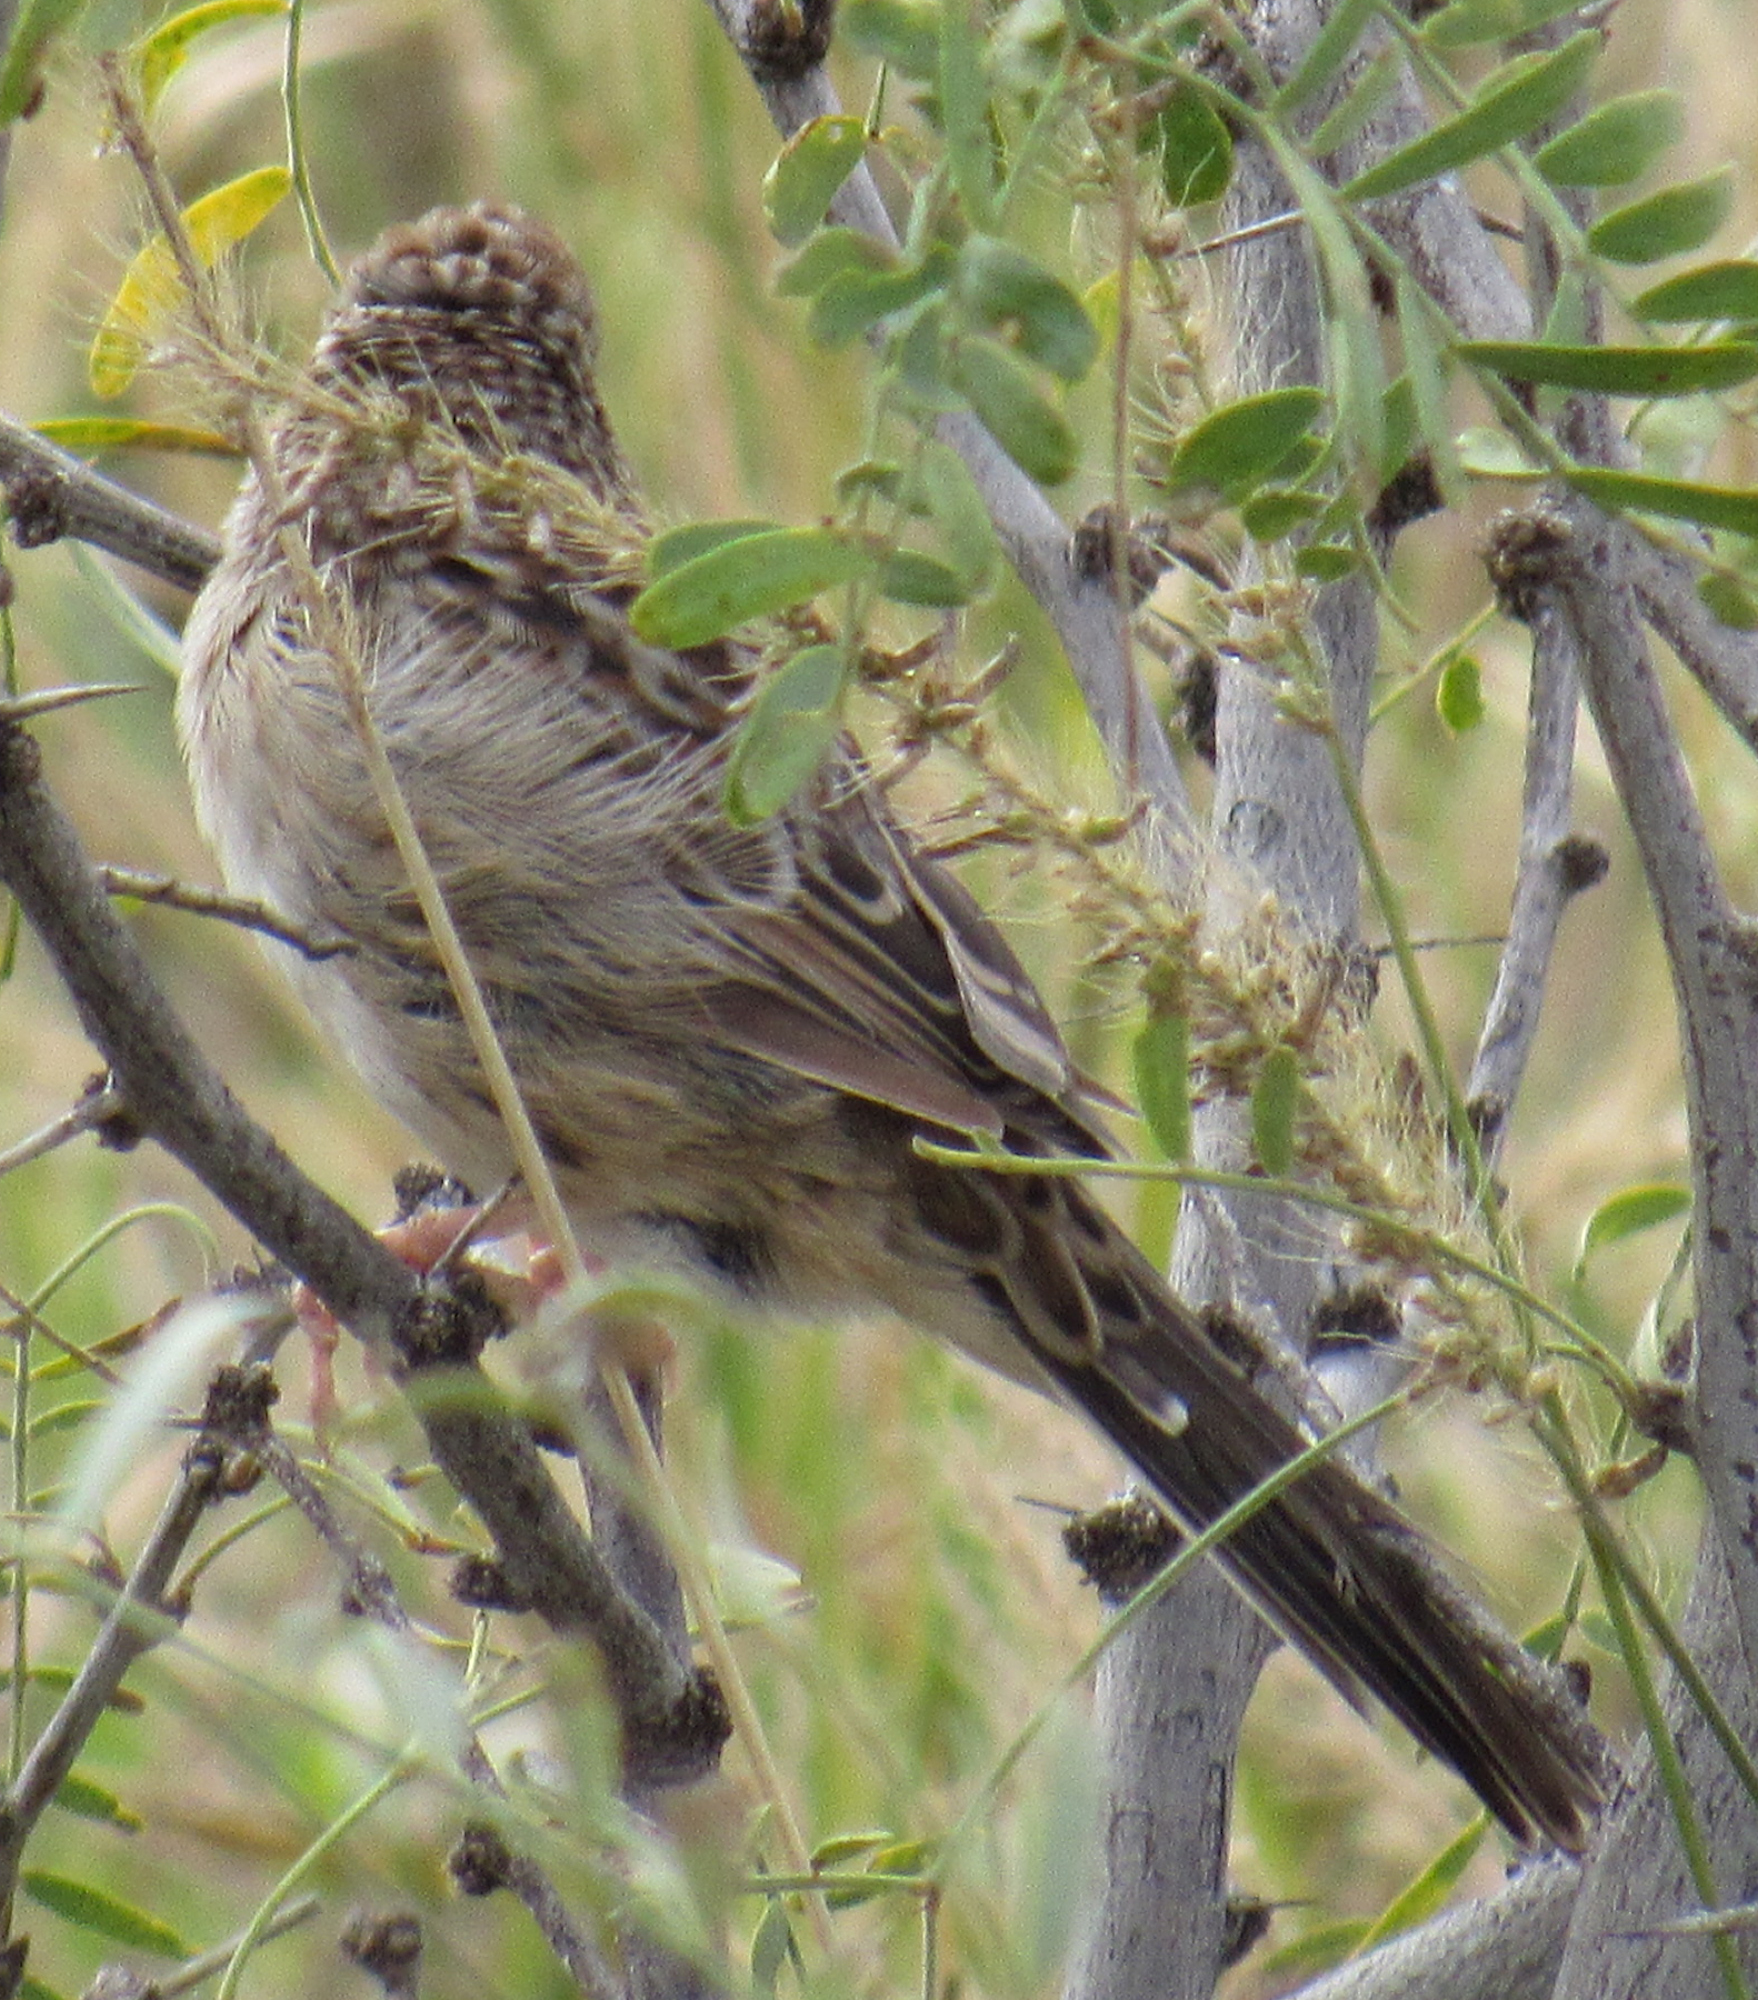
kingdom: Animalia
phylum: Chordata
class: Aves
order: Passeriformes
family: Passerellidae
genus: Peucaea
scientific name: Peucaea cassinii
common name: Cassin's sparrow
